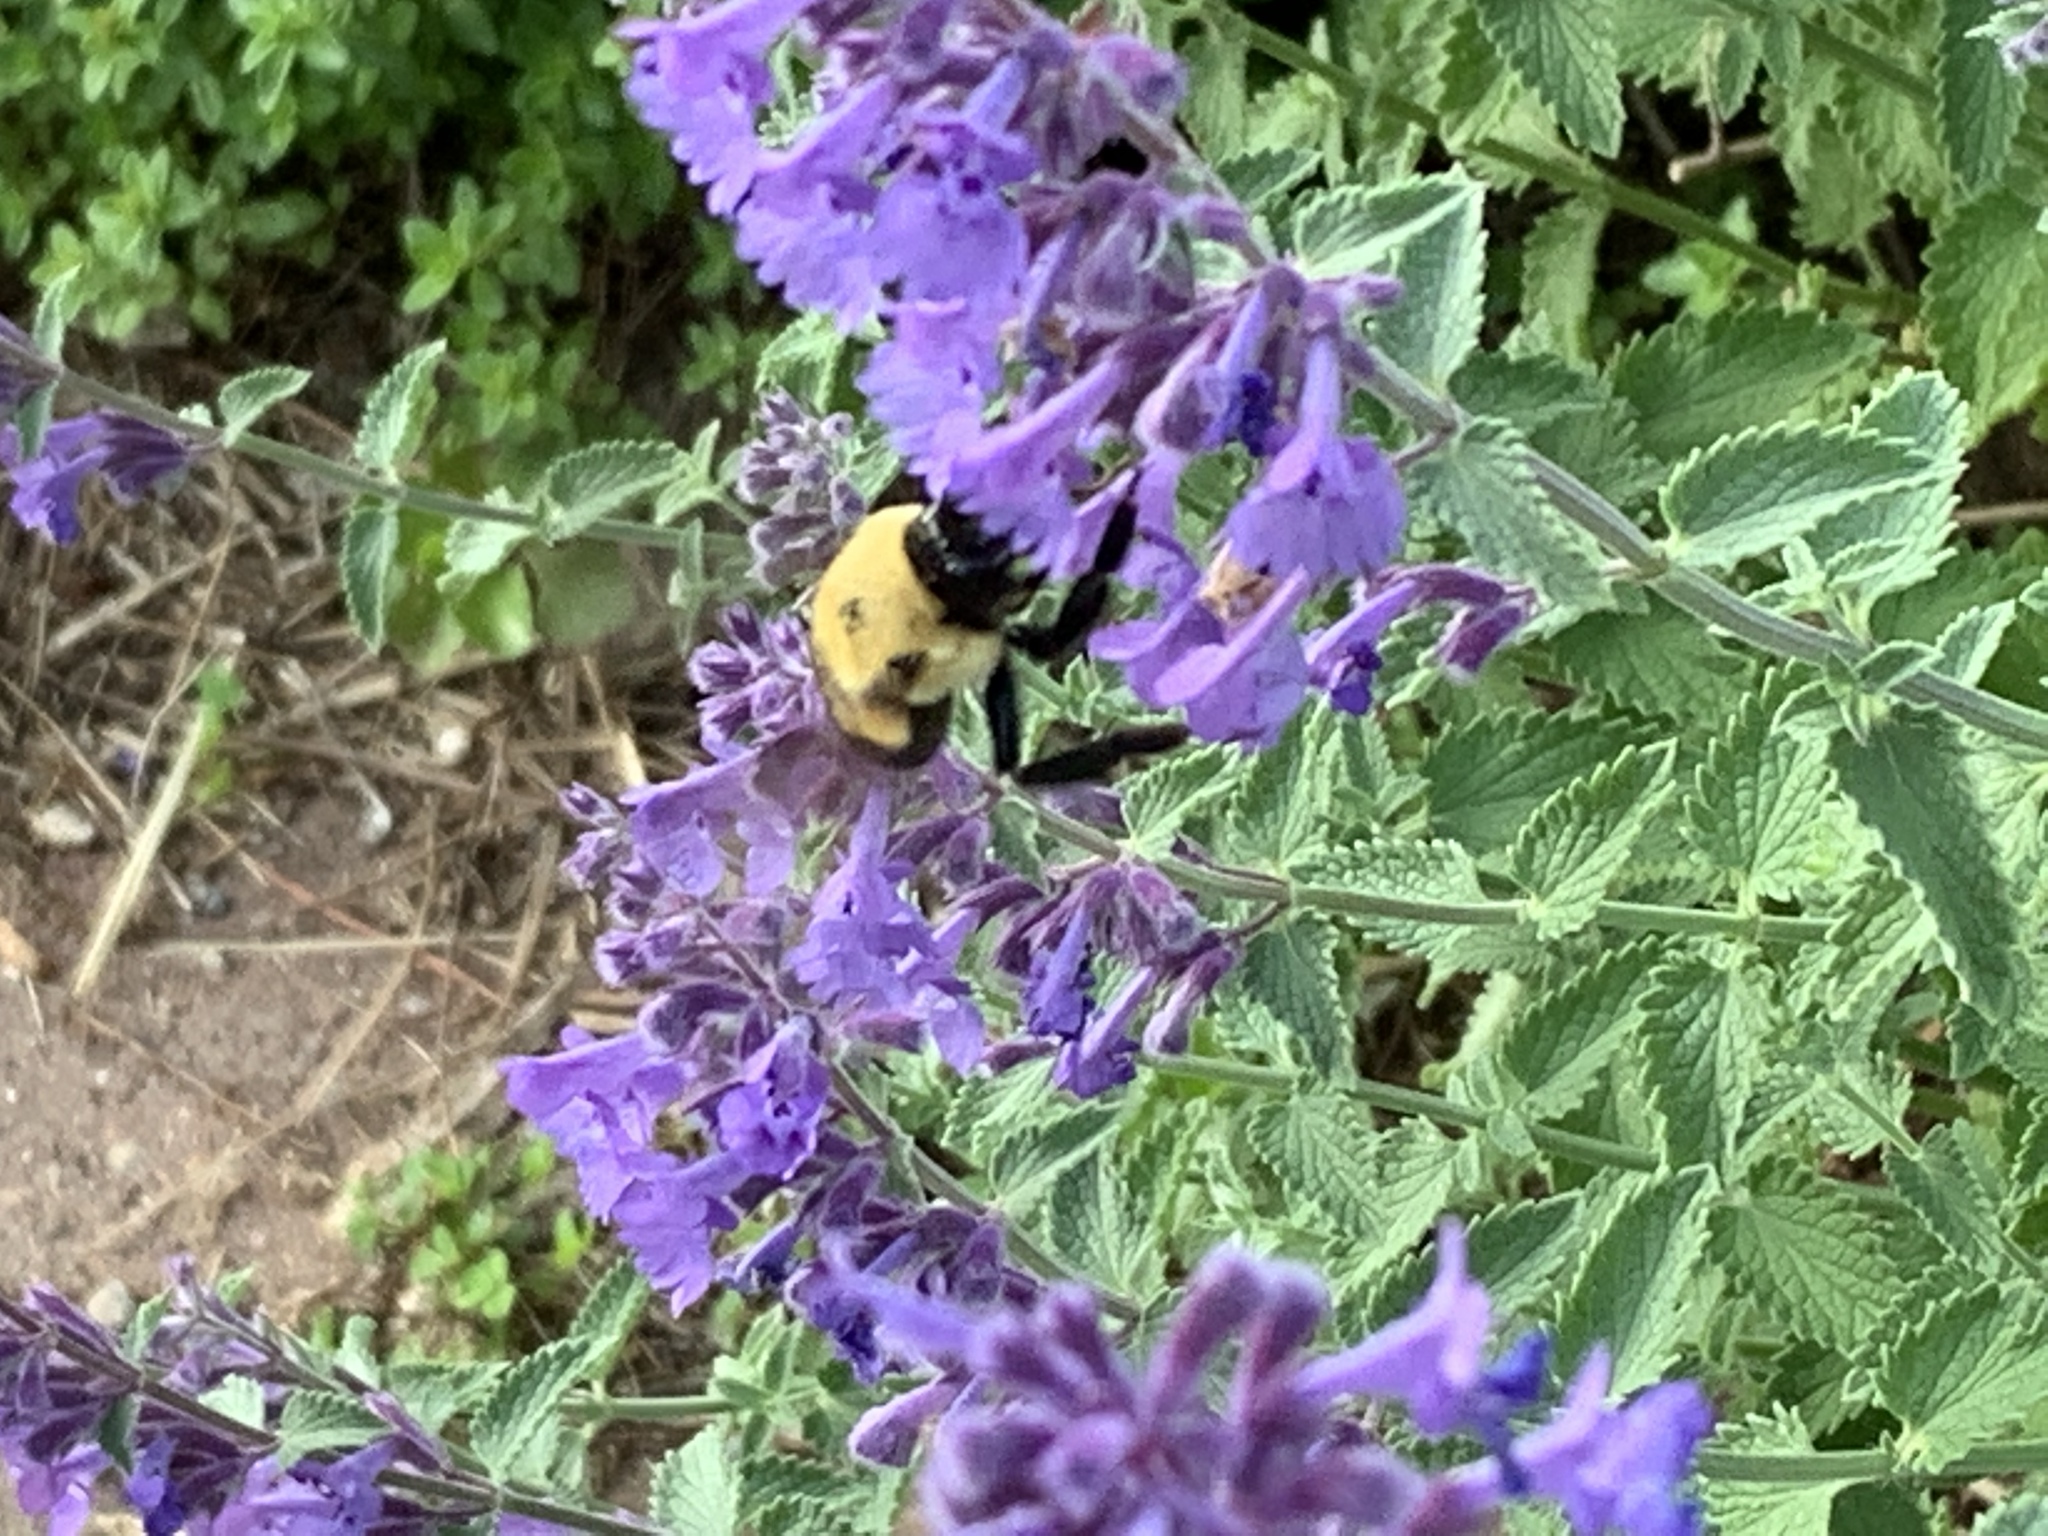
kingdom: Animalia
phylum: Arthropoda
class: Insecta
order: Hymenoptera
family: Apidae
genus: Bombus
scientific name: Bombus griseocollis
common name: Brown-belted bumble bee
